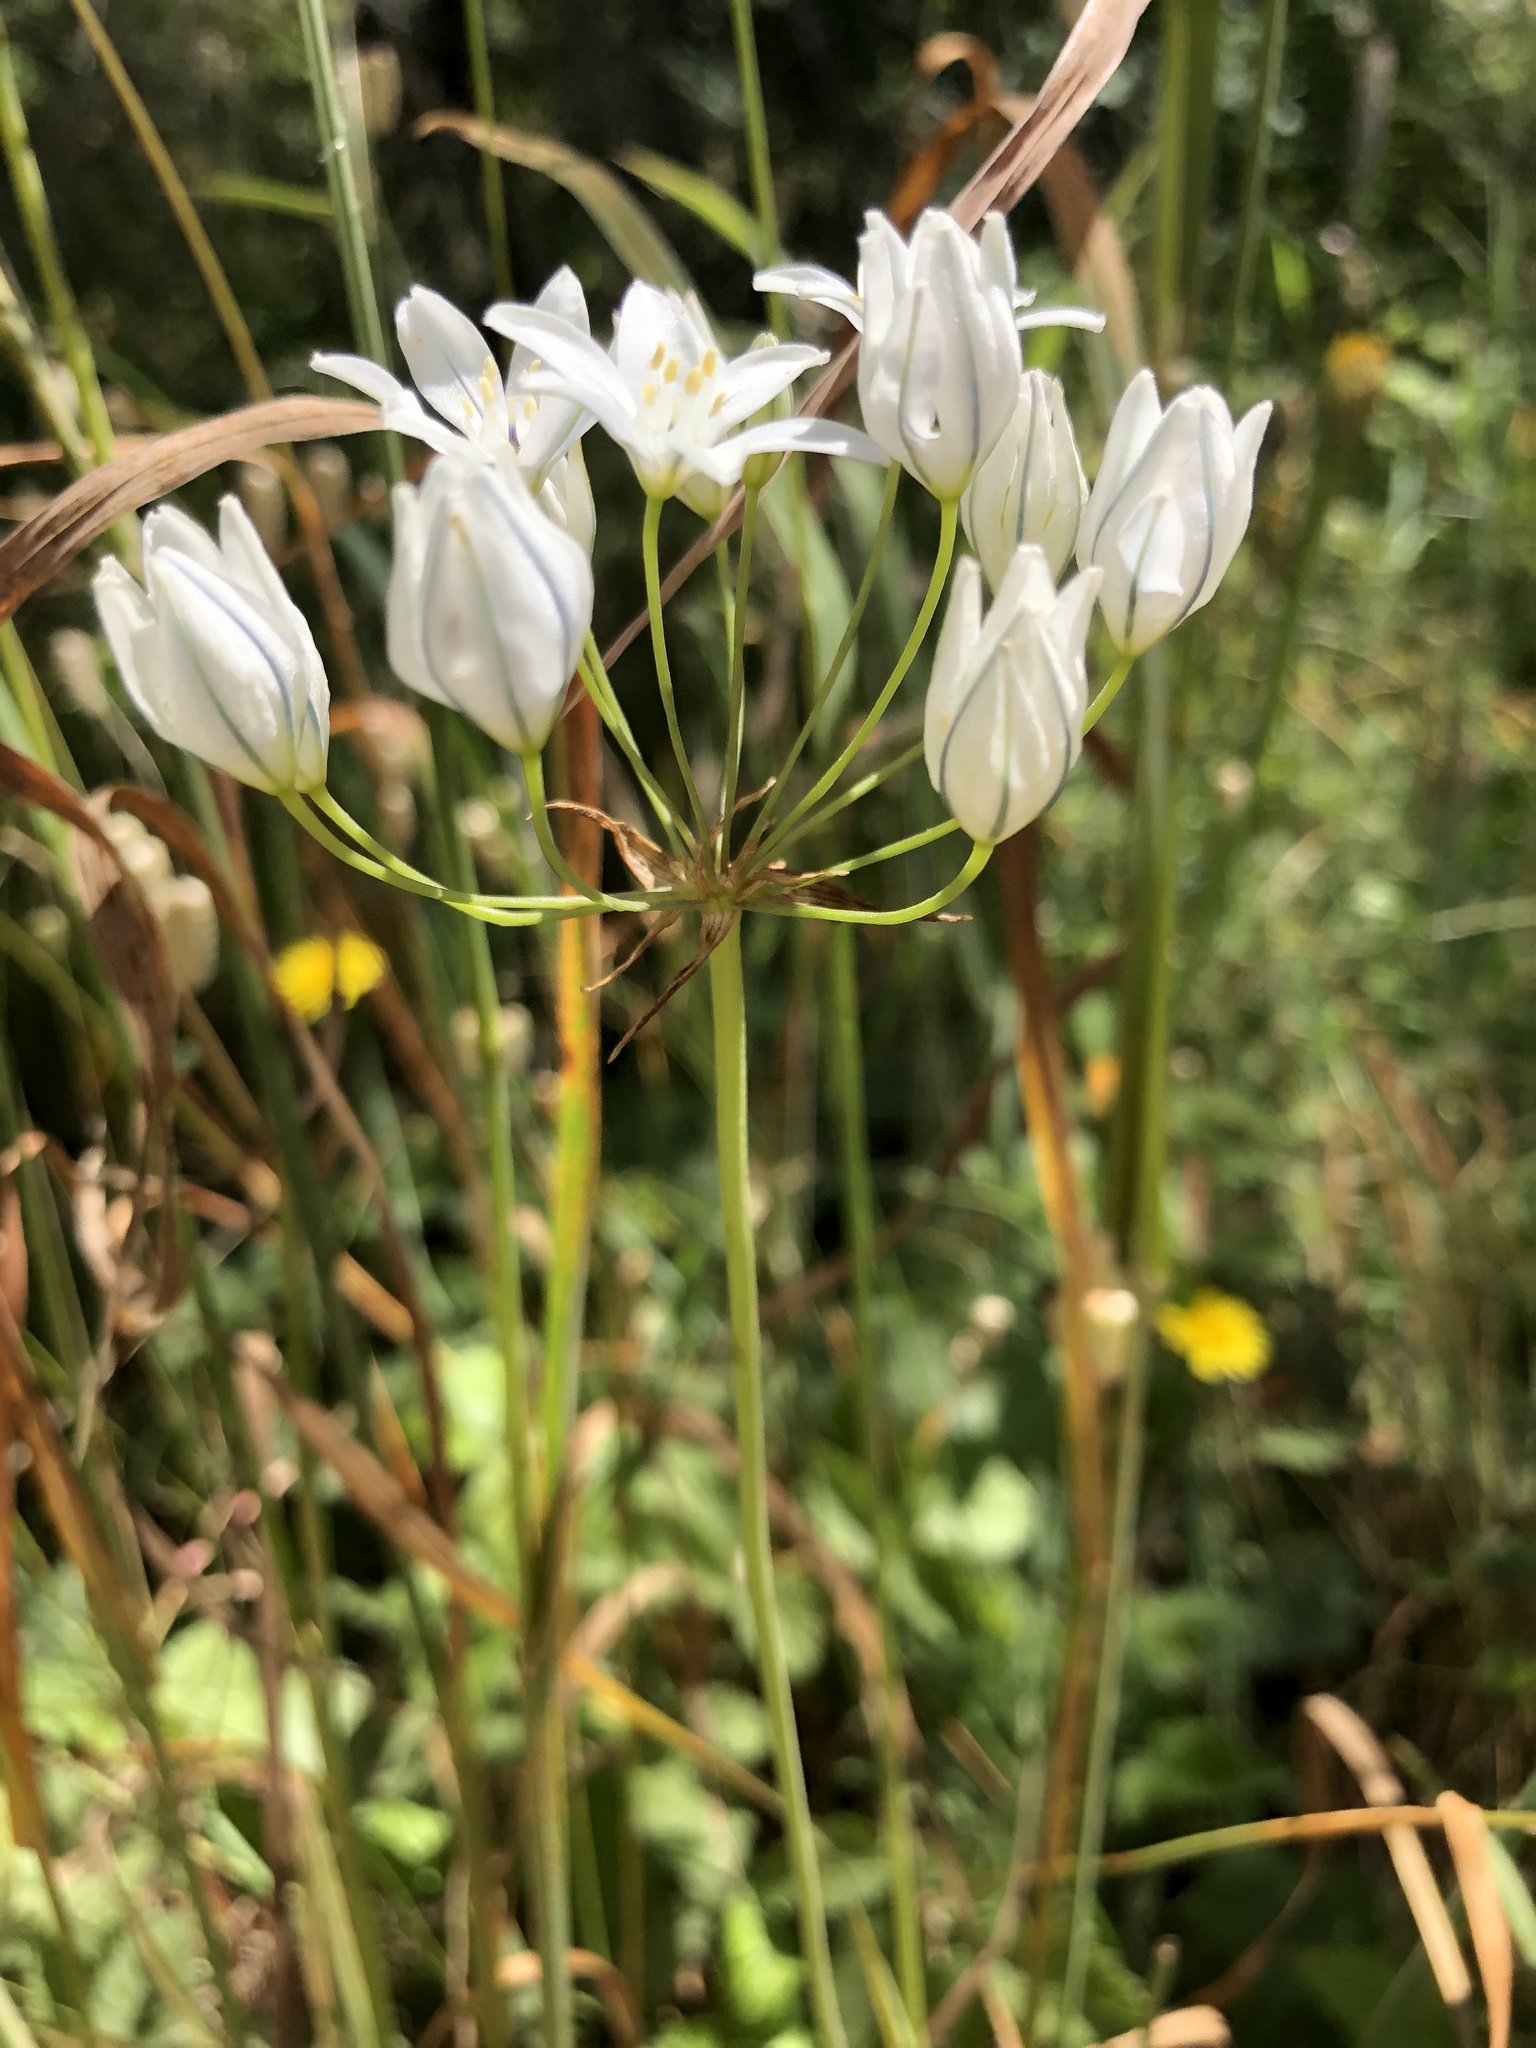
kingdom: Plantae
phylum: Tracheophyta
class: Liliopsida
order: Asparagales
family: Asparagaceae
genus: Triteleia
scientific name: Triteleia hyacinthina
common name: White brodiaea
